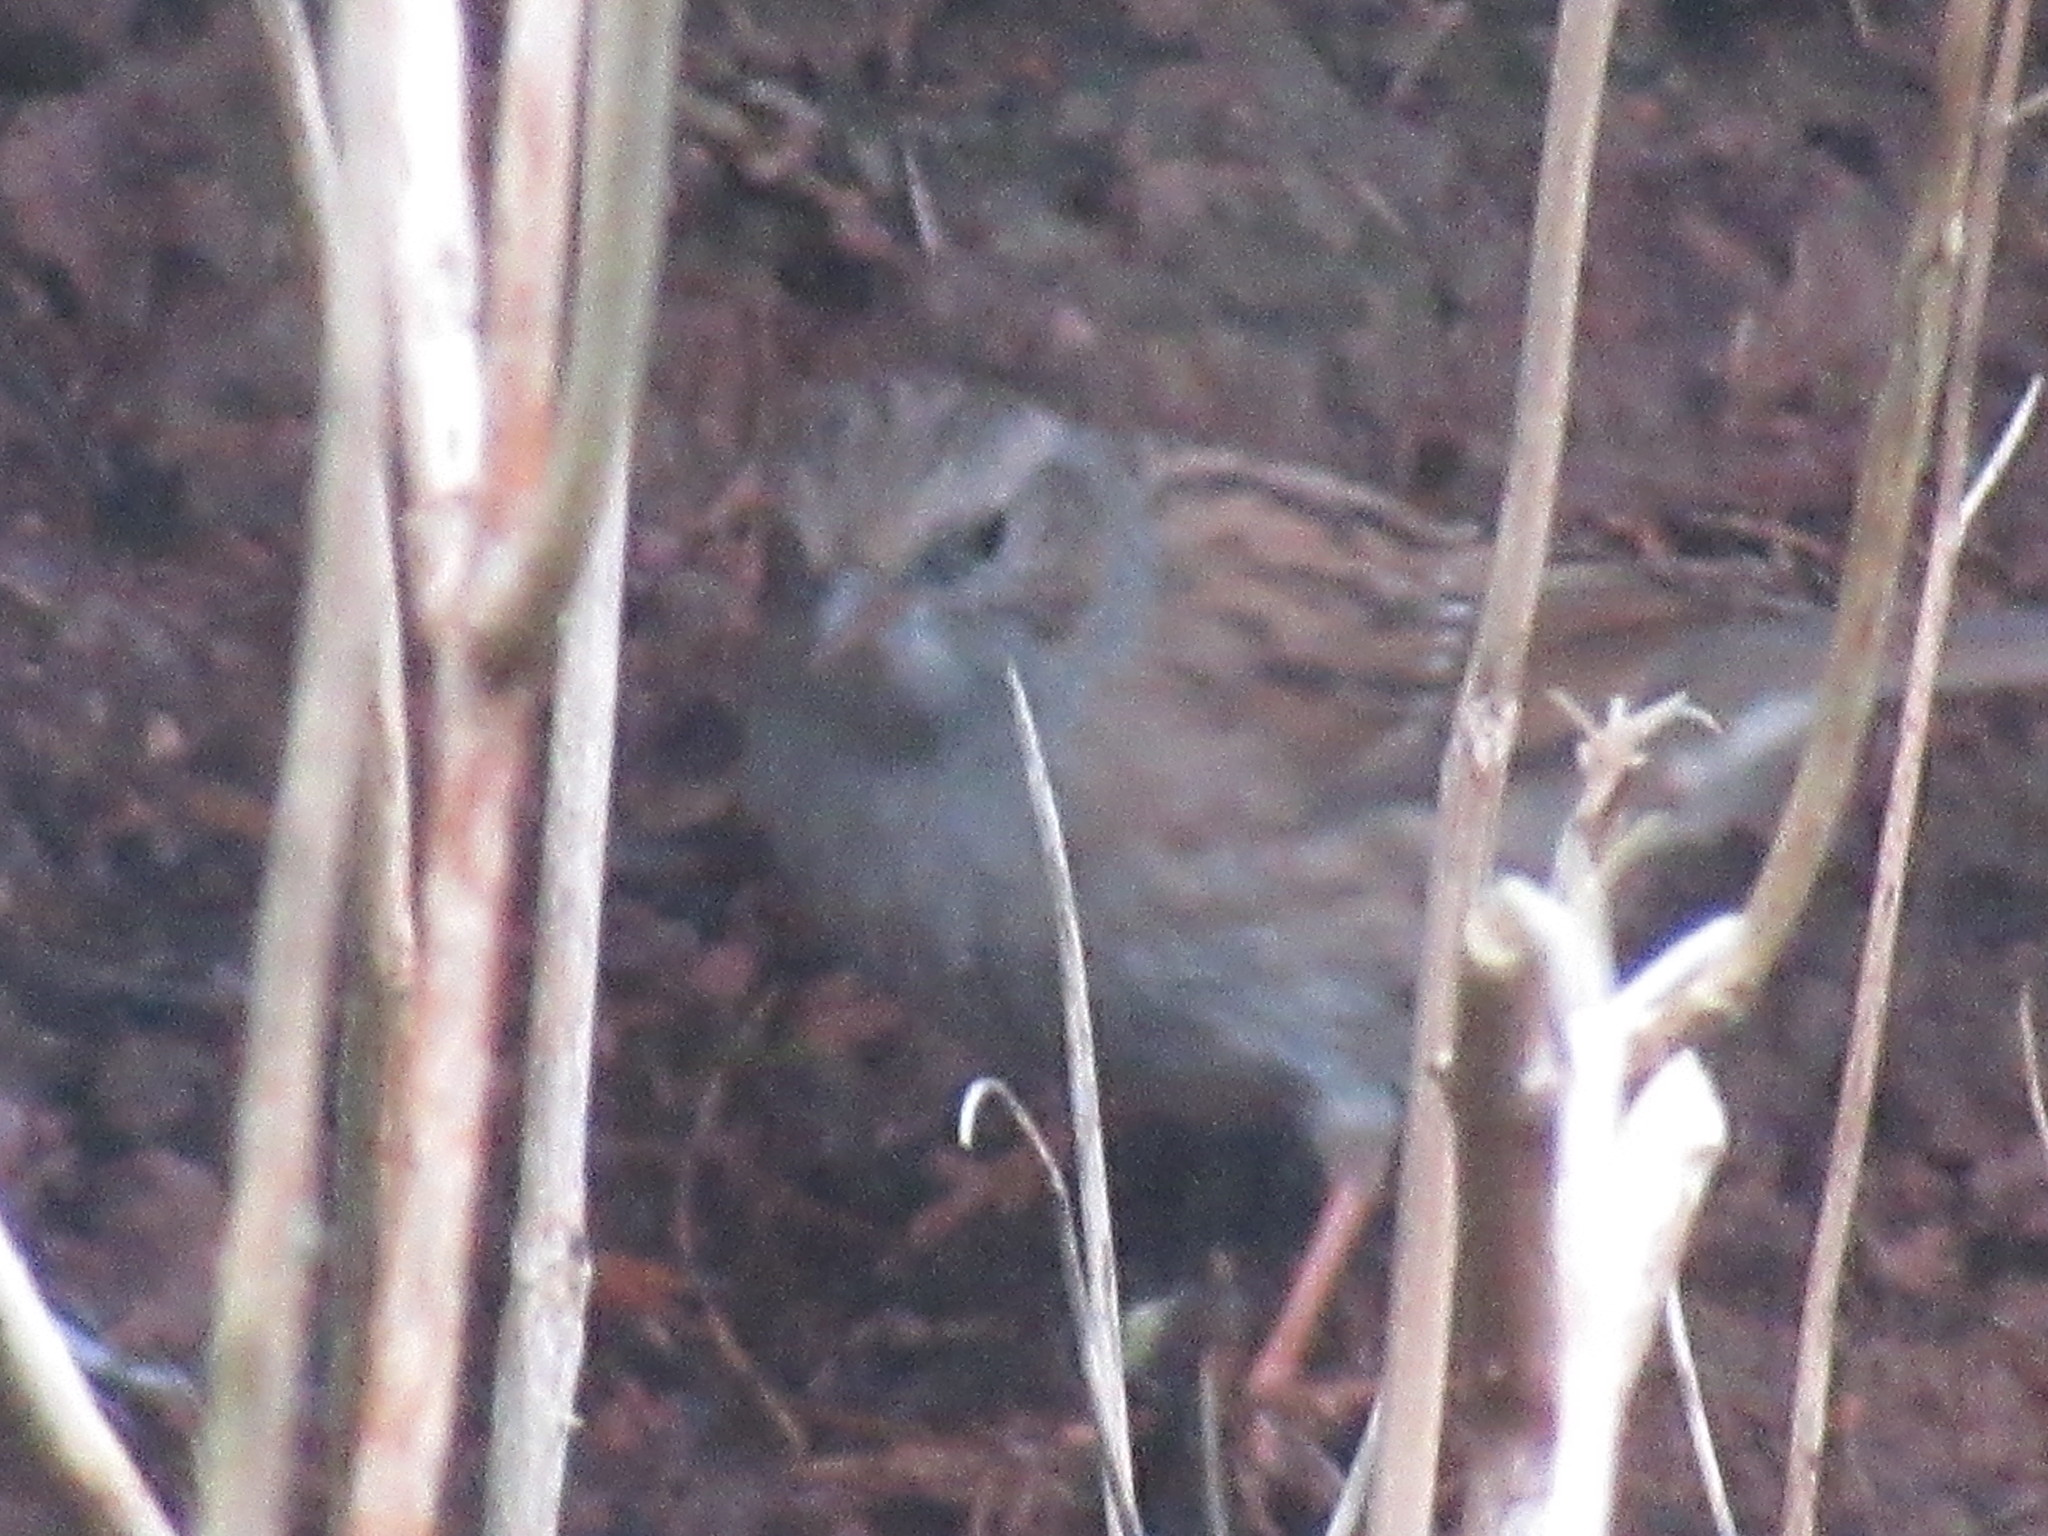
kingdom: Animalia
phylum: Chordata
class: Aves
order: Passeriformes
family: Prunellidae
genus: Prunella
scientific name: Prunella modularis
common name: Dunnock
